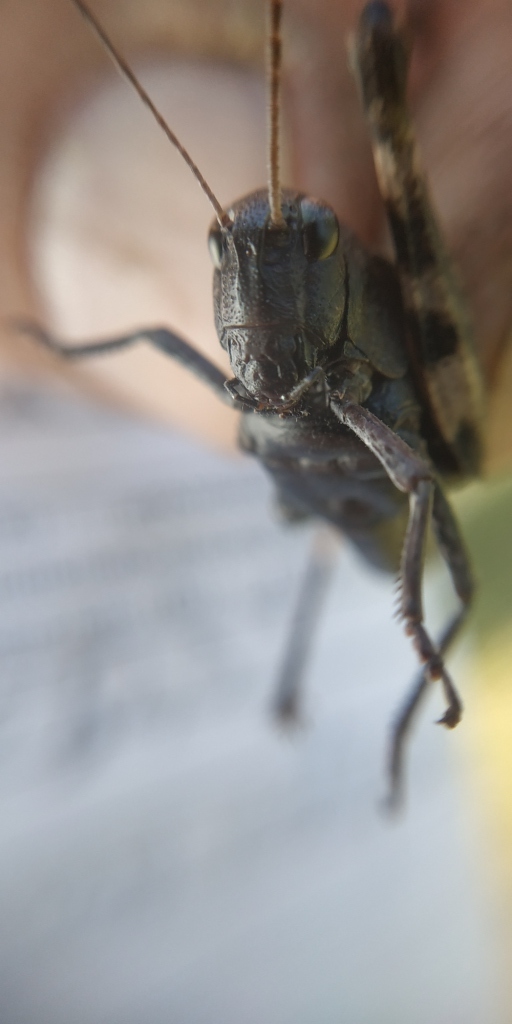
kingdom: Animalia
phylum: Arthropoda
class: Insecta
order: Orthoptera
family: Acrididae
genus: Psophus
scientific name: Psophus stridulus
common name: Rattle grasshopper
